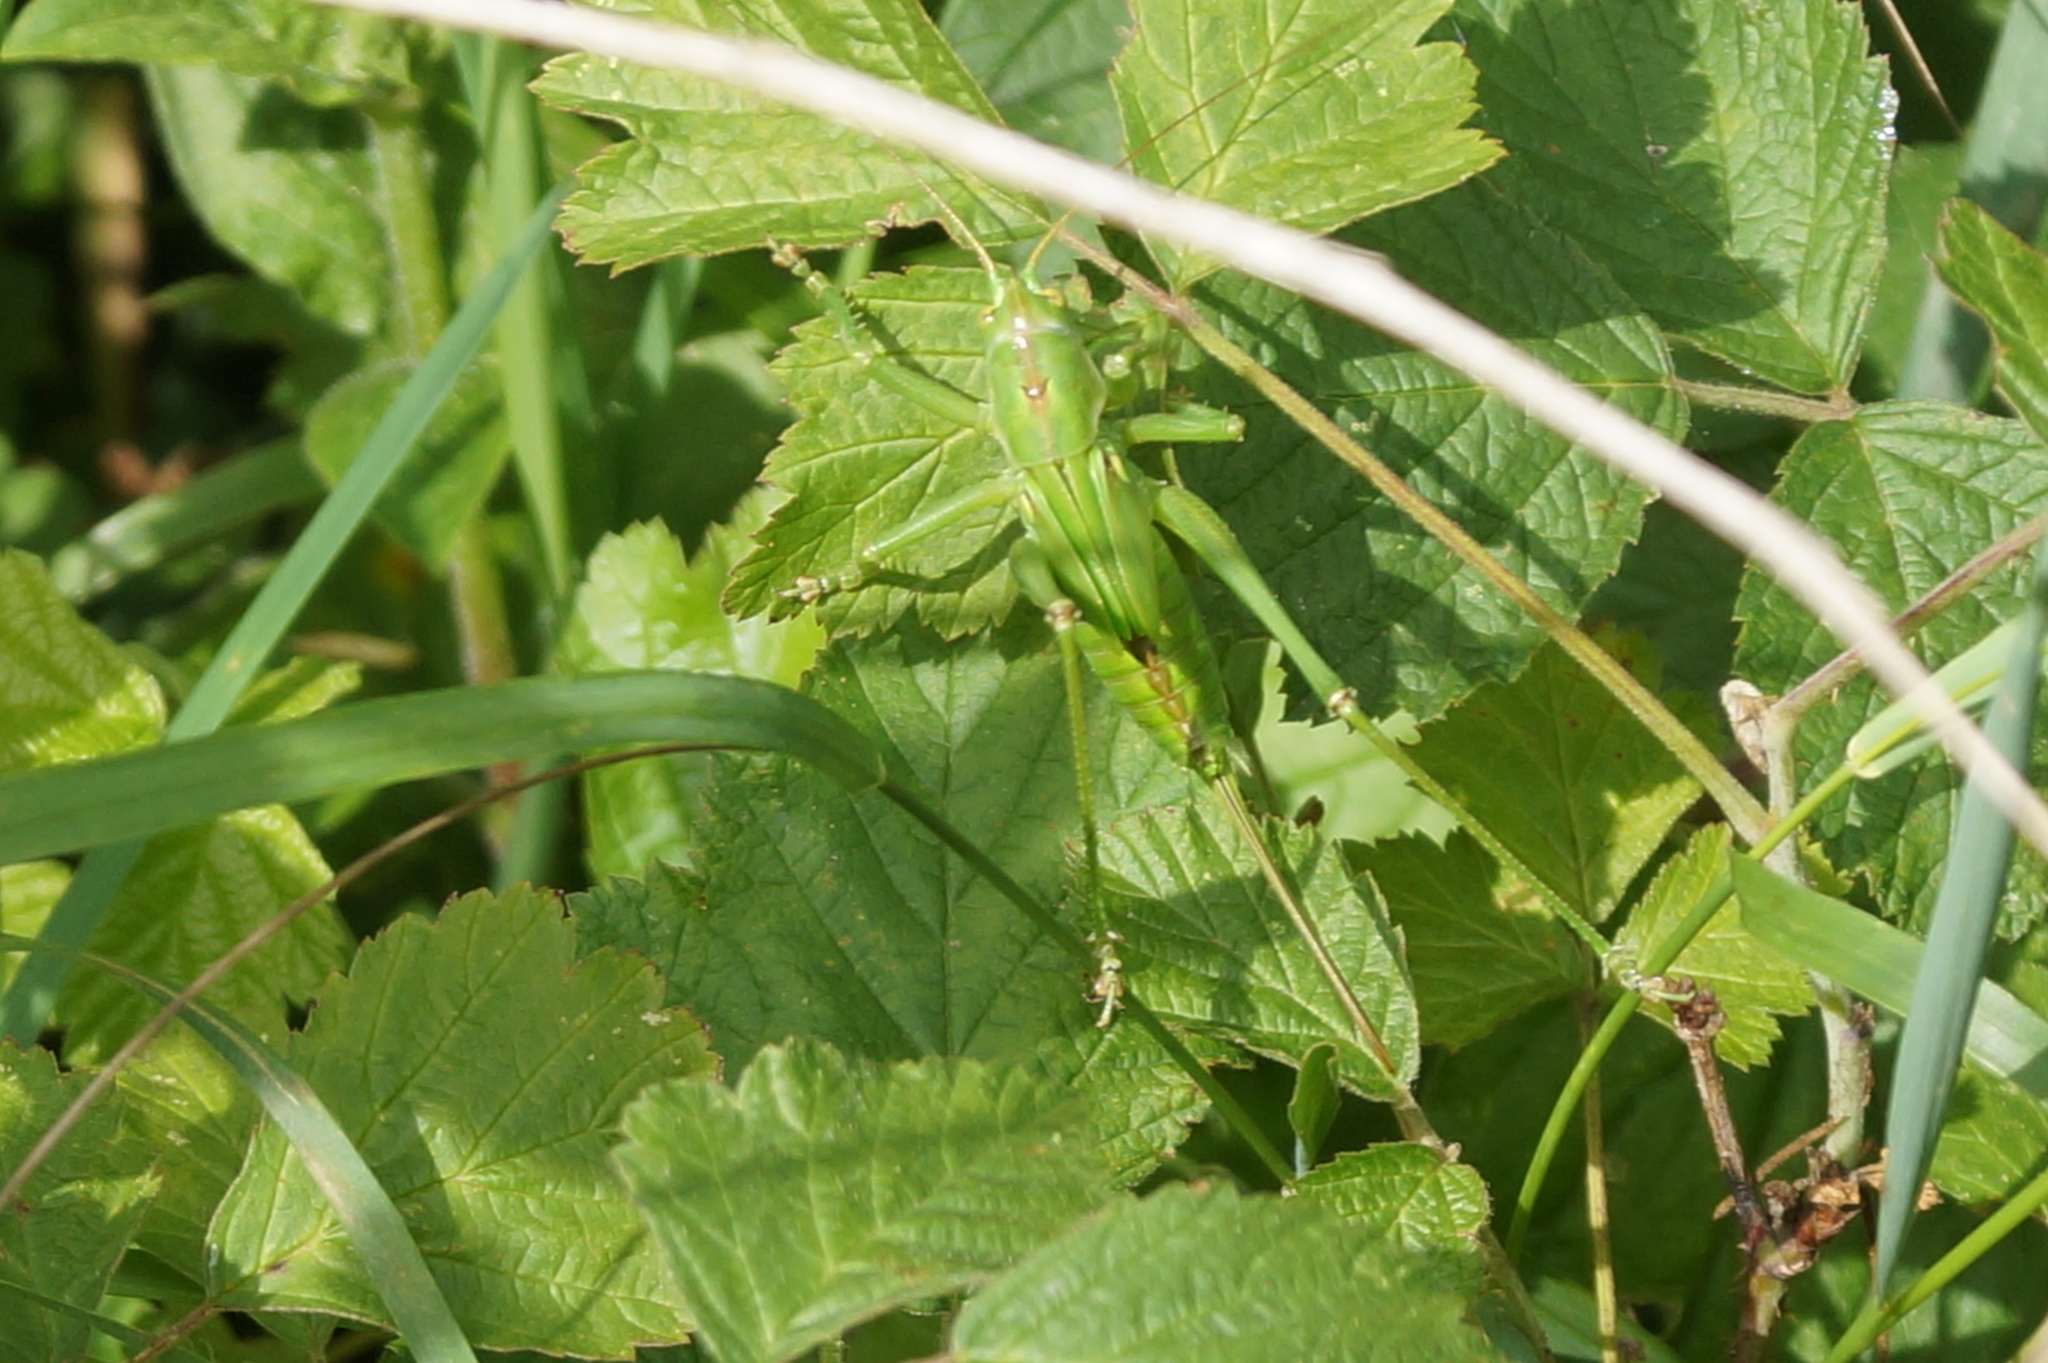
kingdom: Animalia
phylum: Arthropoda
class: Insecta
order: Orthoptera
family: Tettigoniidae
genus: Tettigonia
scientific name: Tettigonia viridissima
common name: Great green bush-cricket
